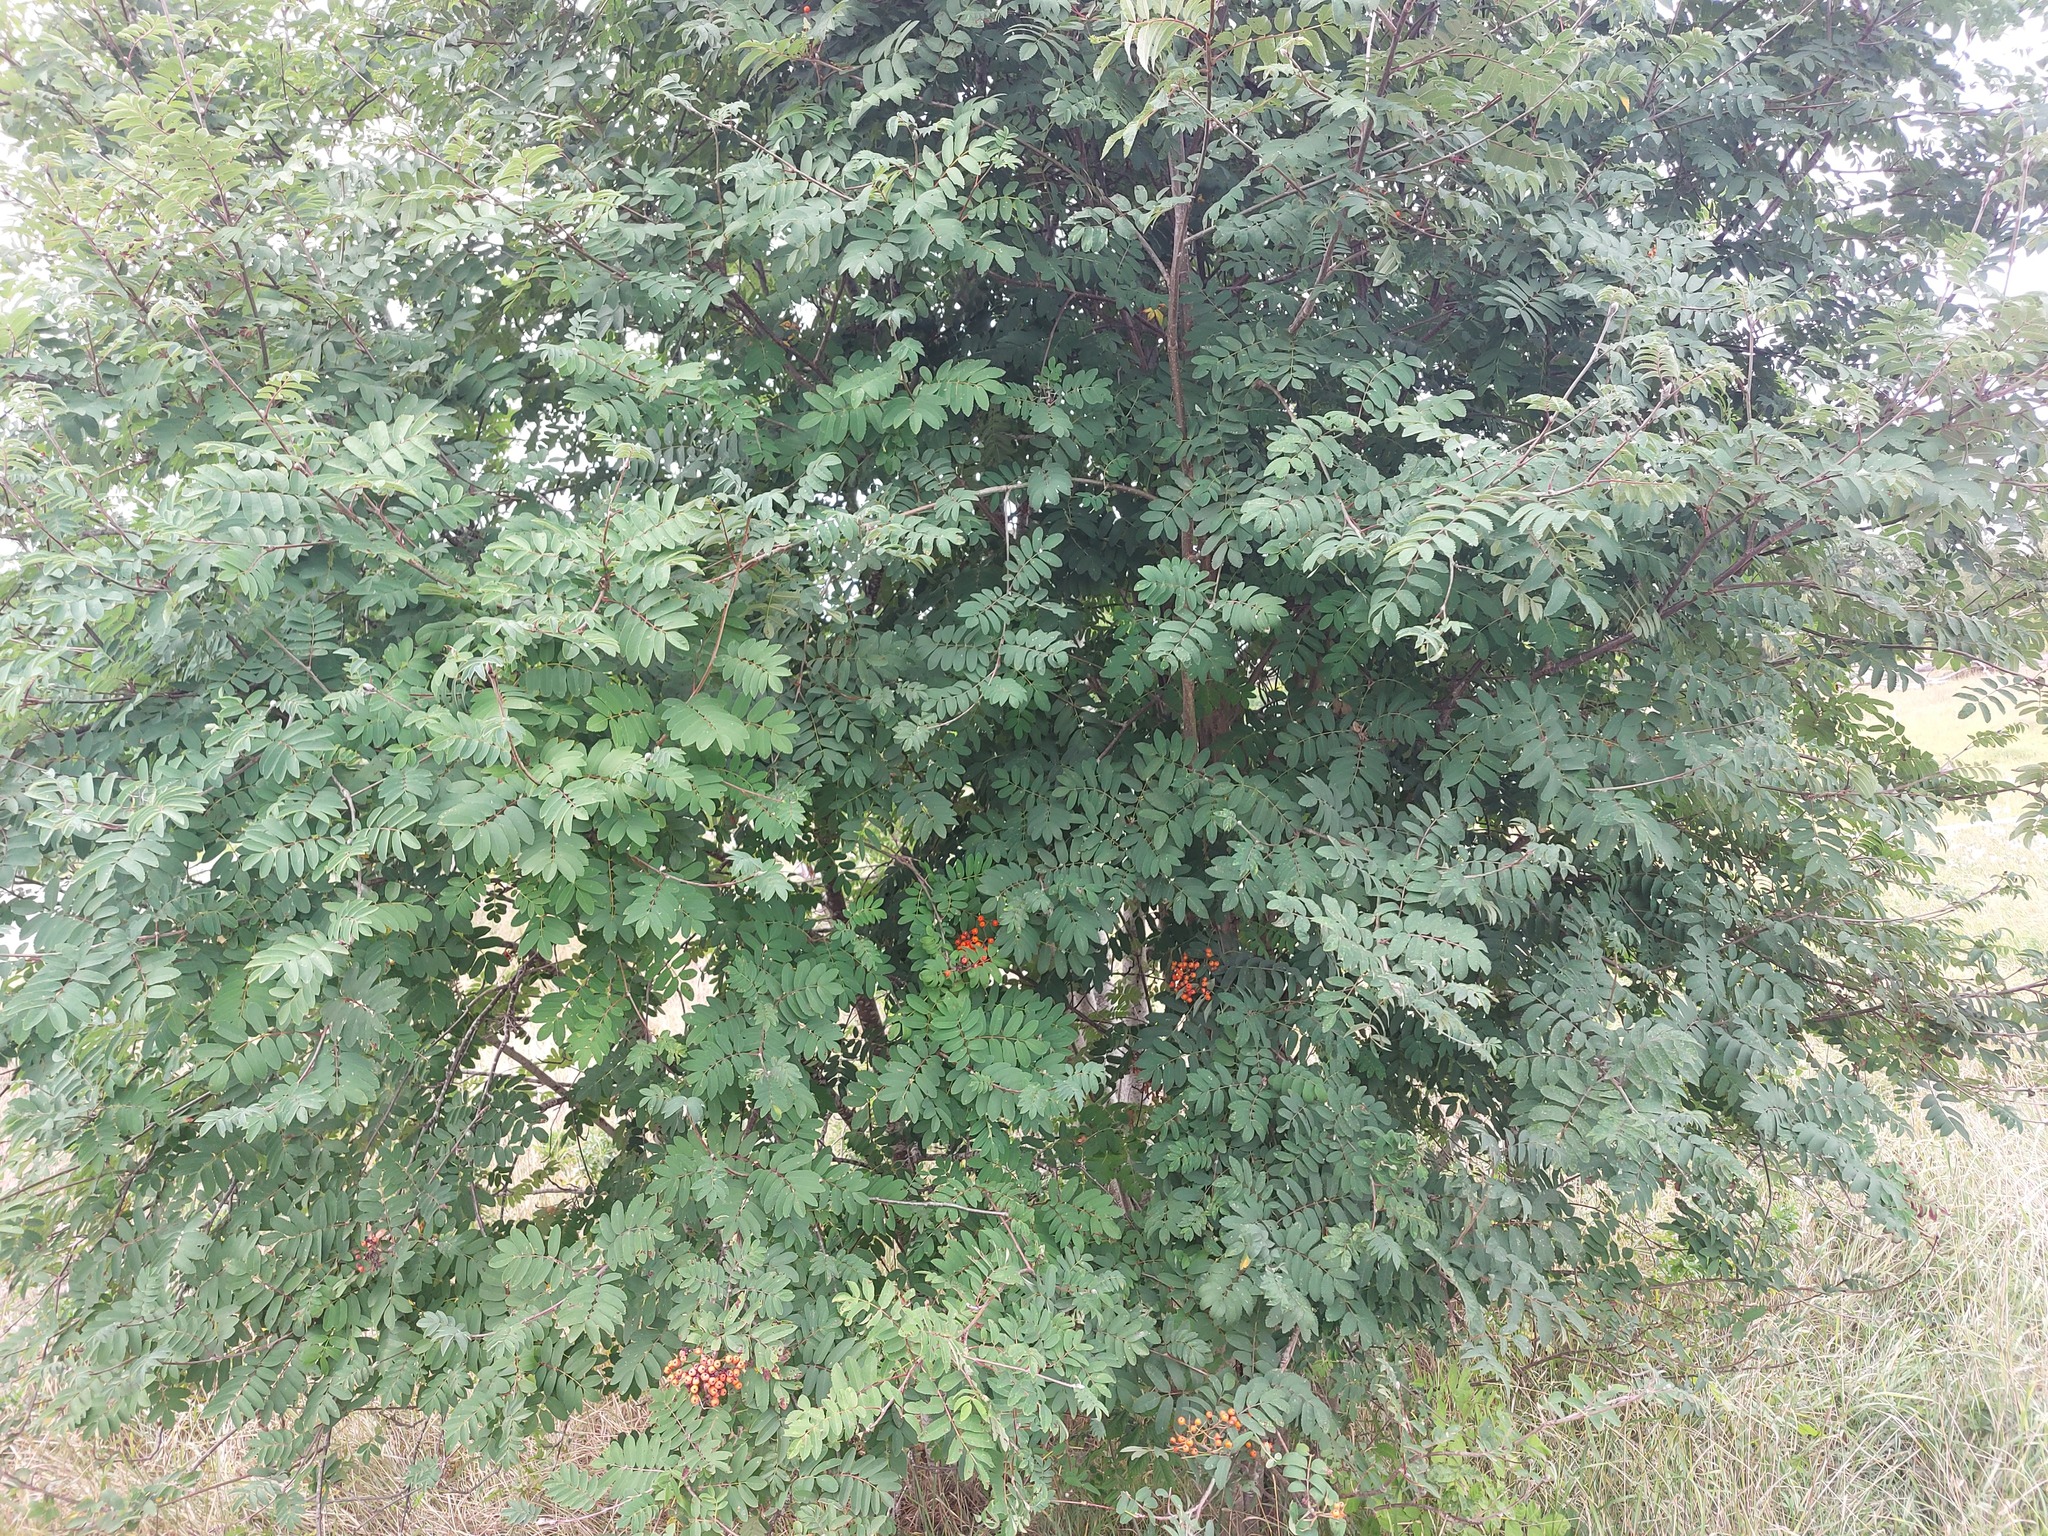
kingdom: Plantae
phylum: Tracheophyta
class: Magnoliopsida
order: Rosales
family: Rosaceae
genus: Sorbus
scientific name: Sorbus aucuparia
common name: Rowan
